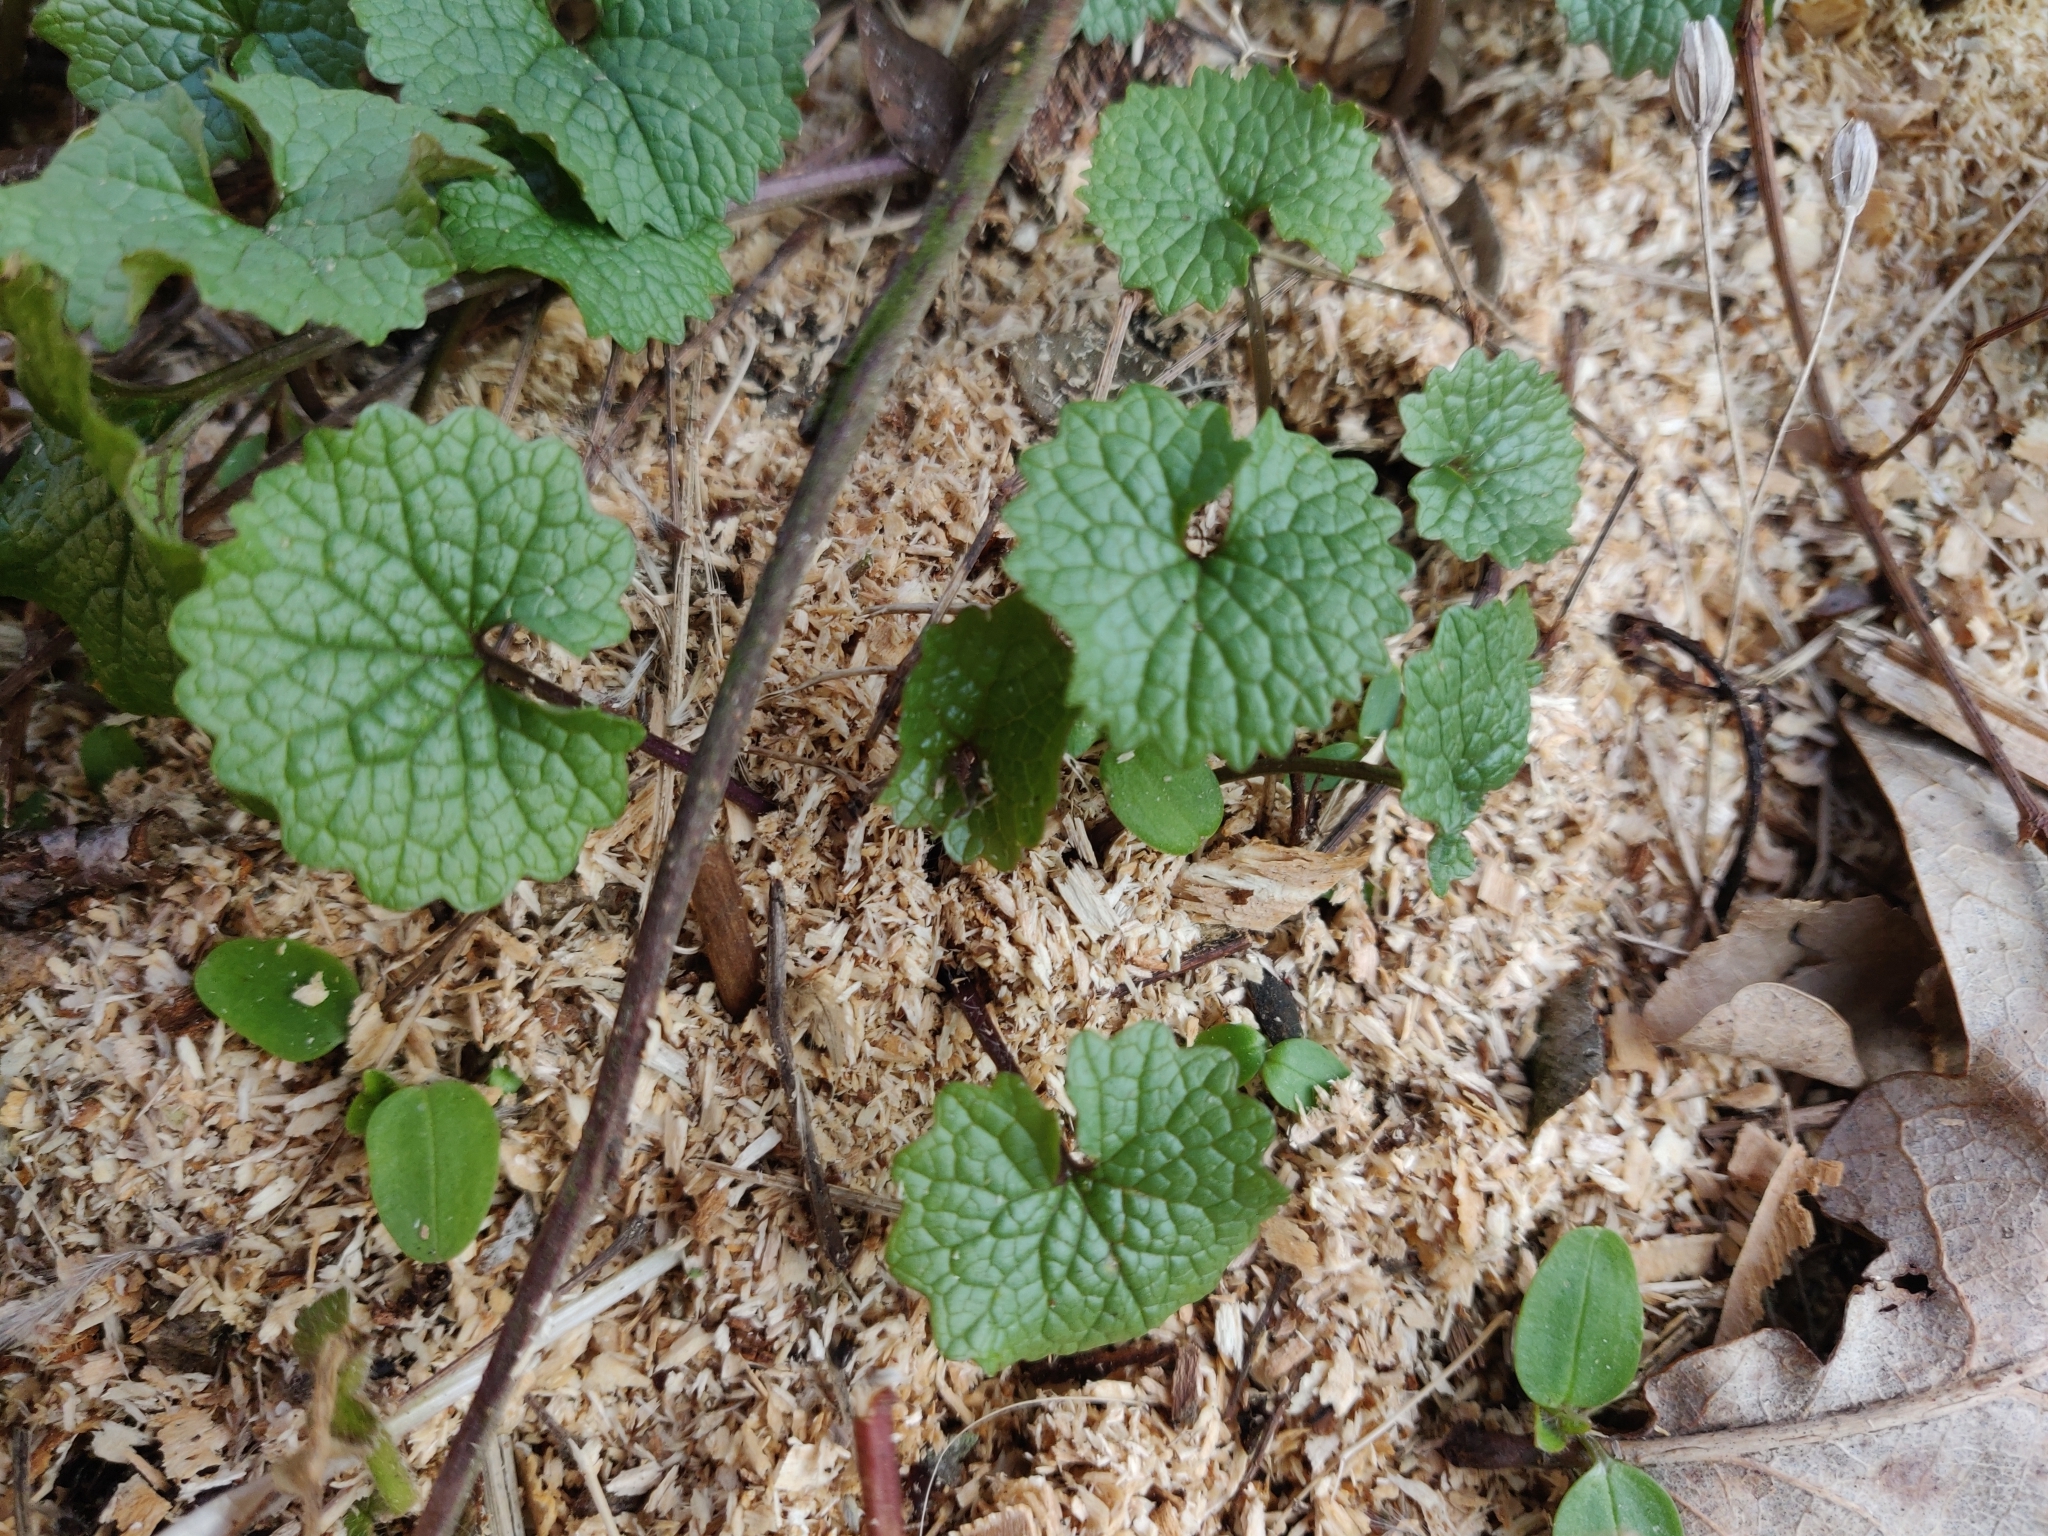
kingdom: Plantae
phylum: Tracheophyta
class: Magnoliopsida
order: Brassicales
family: Brassicaceae
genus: Alliaria
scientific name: Alliaria petiolata
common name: Garlic mustard
